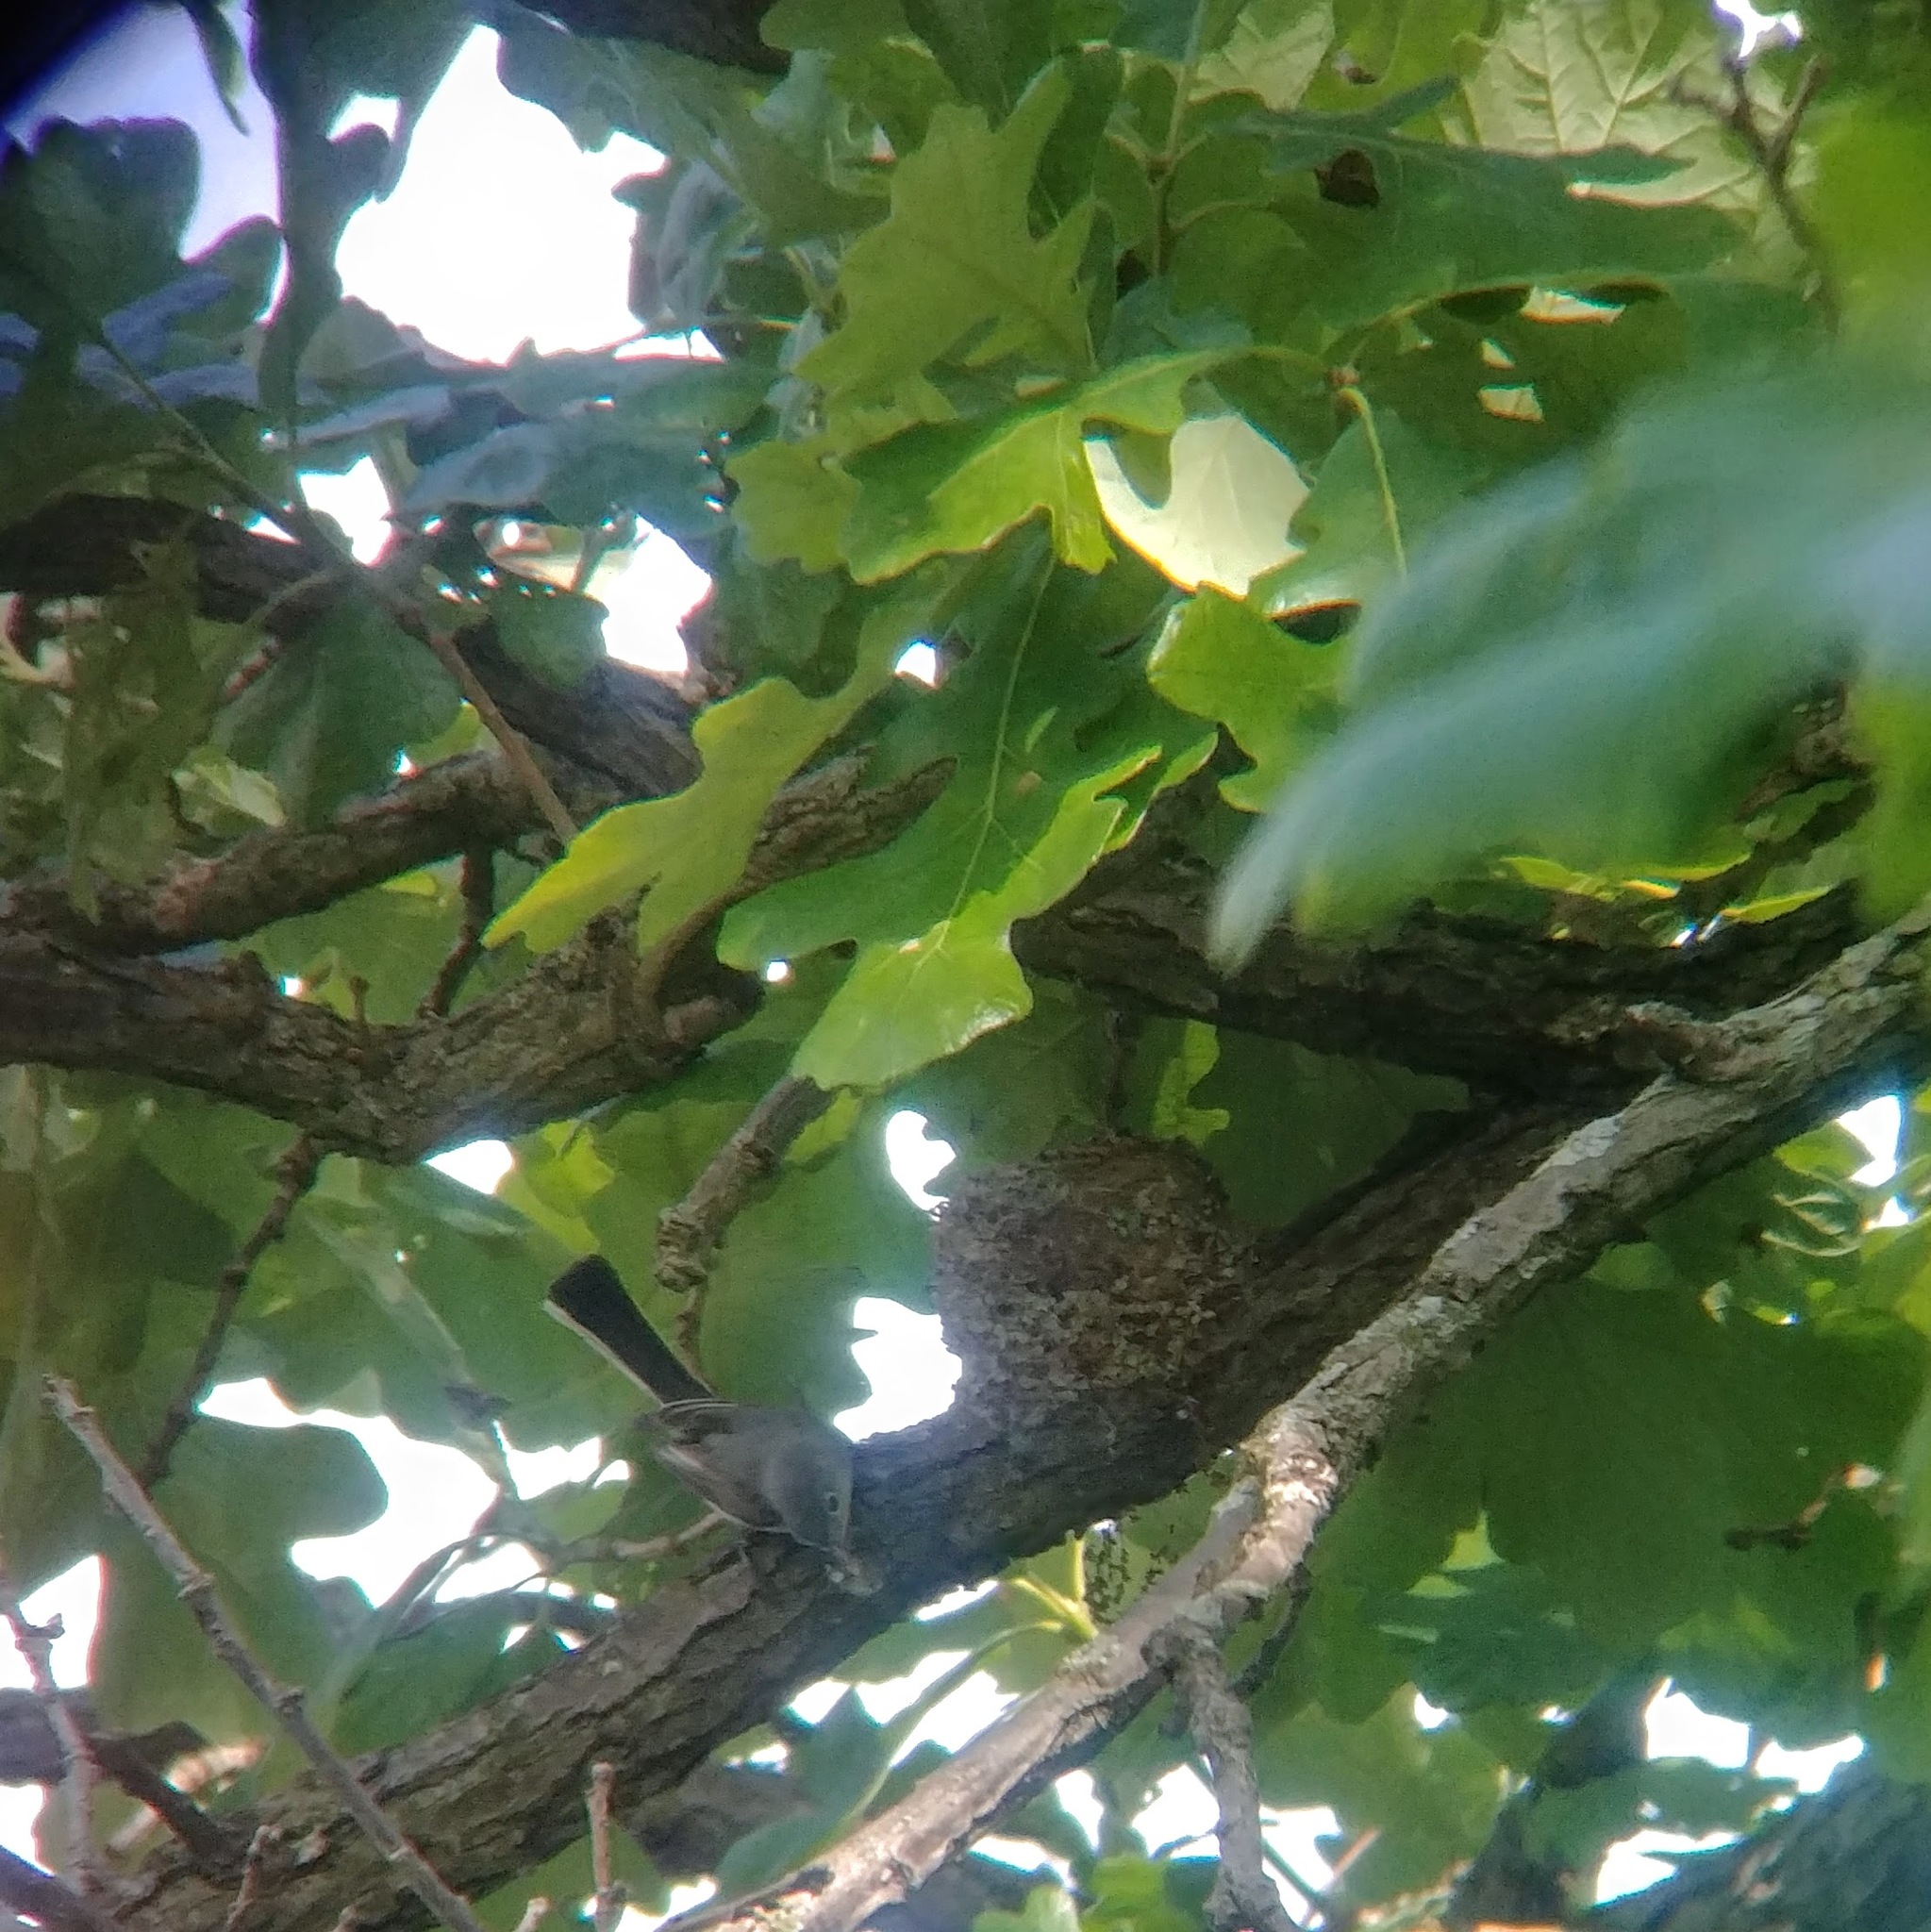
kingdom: Animalia
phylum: Chordata
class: Aves
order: Passeriformes
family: Polioptilidae
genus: Polioptila
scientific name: Polioptila caerulea
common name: Blue-gray gnatcatcher
